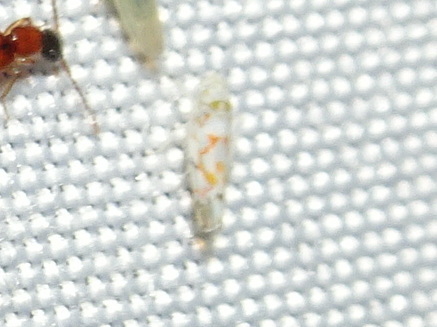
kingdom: Animalia
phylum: Arthropoda
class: Insecta
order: Hemiptera
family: Cicadellidae
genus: Erythroneura
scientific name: Erythroneura delicata
